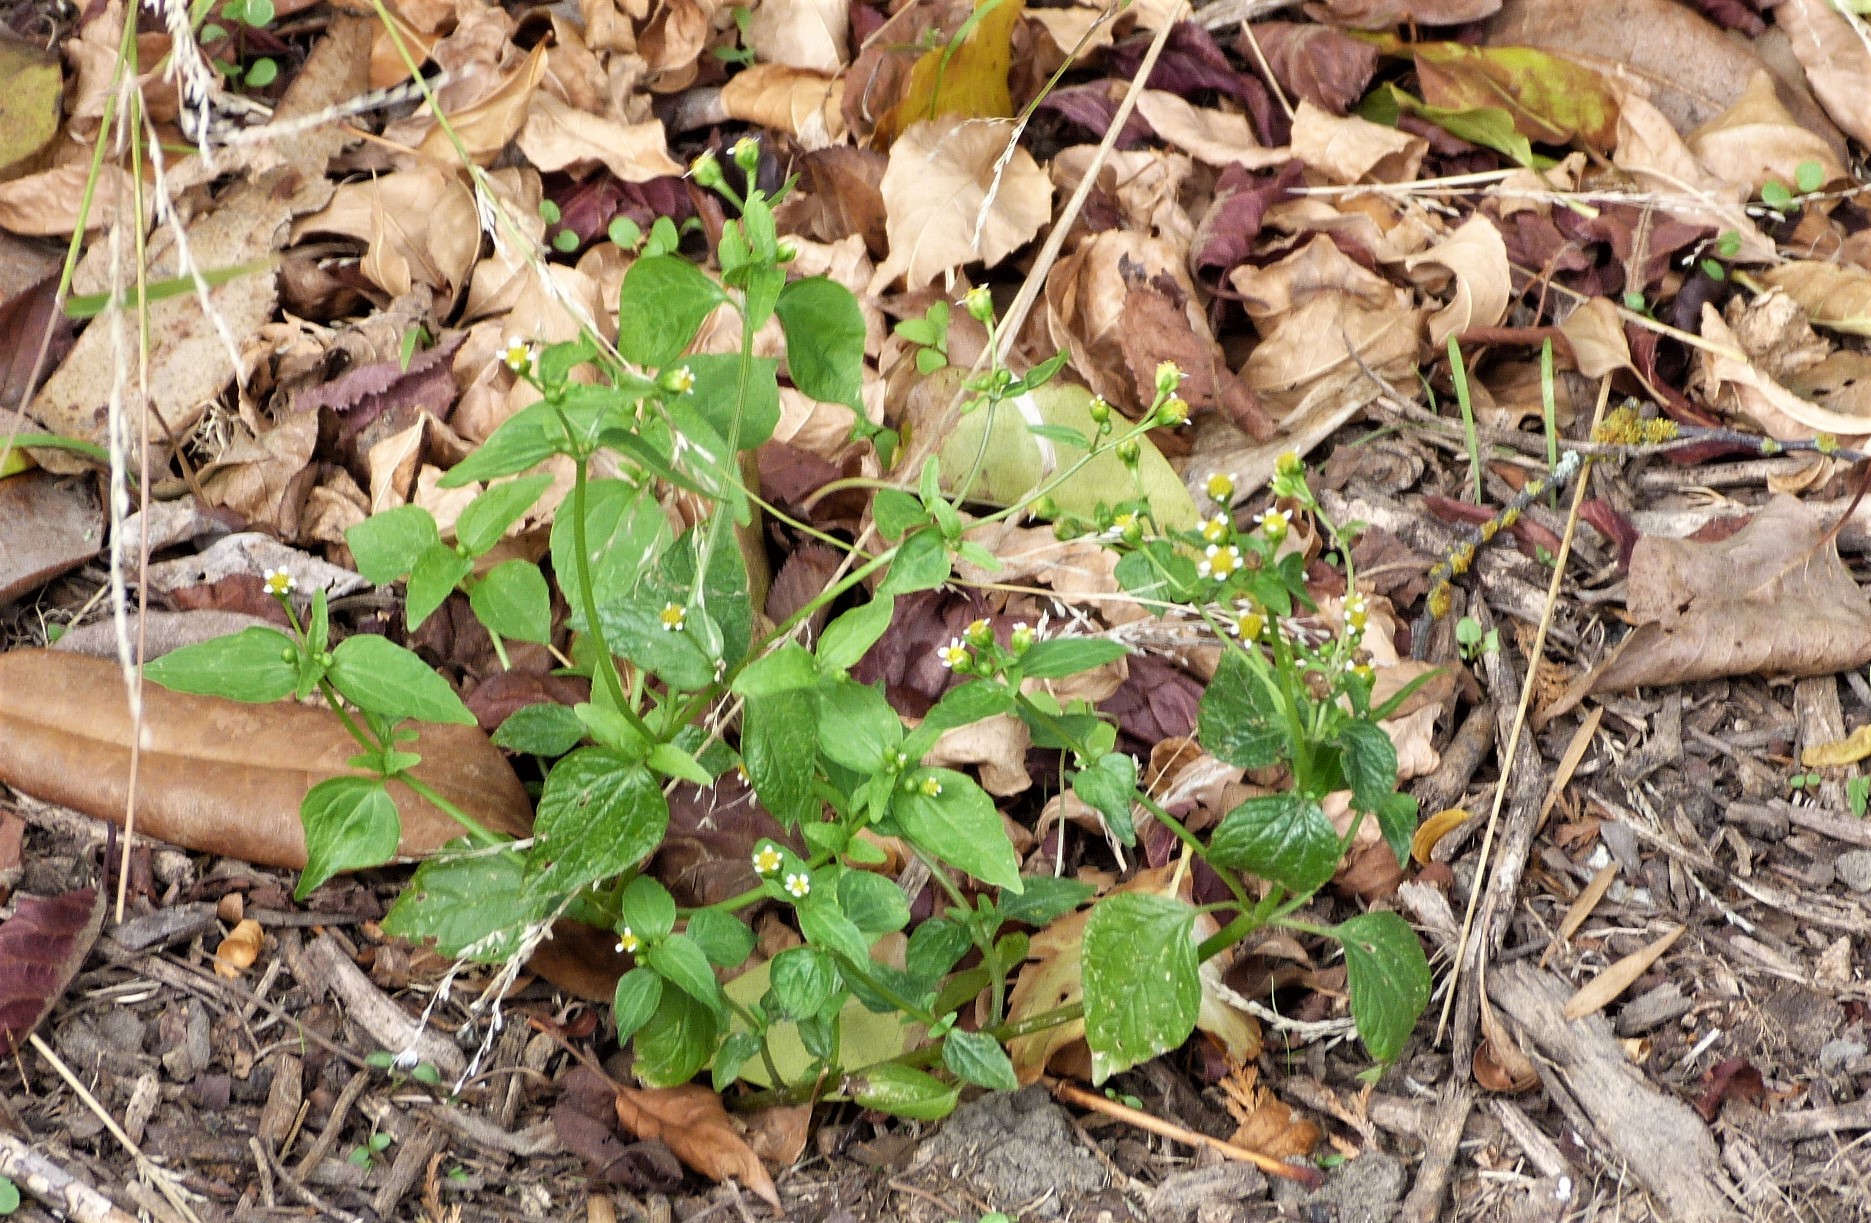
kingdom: Plantae
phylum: Tracheophyta
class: Magnoliopsida
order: Asterales
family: Asteraceae
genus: Galinsoga
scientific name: Galinsoga parviflora
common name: Gallant soldier
